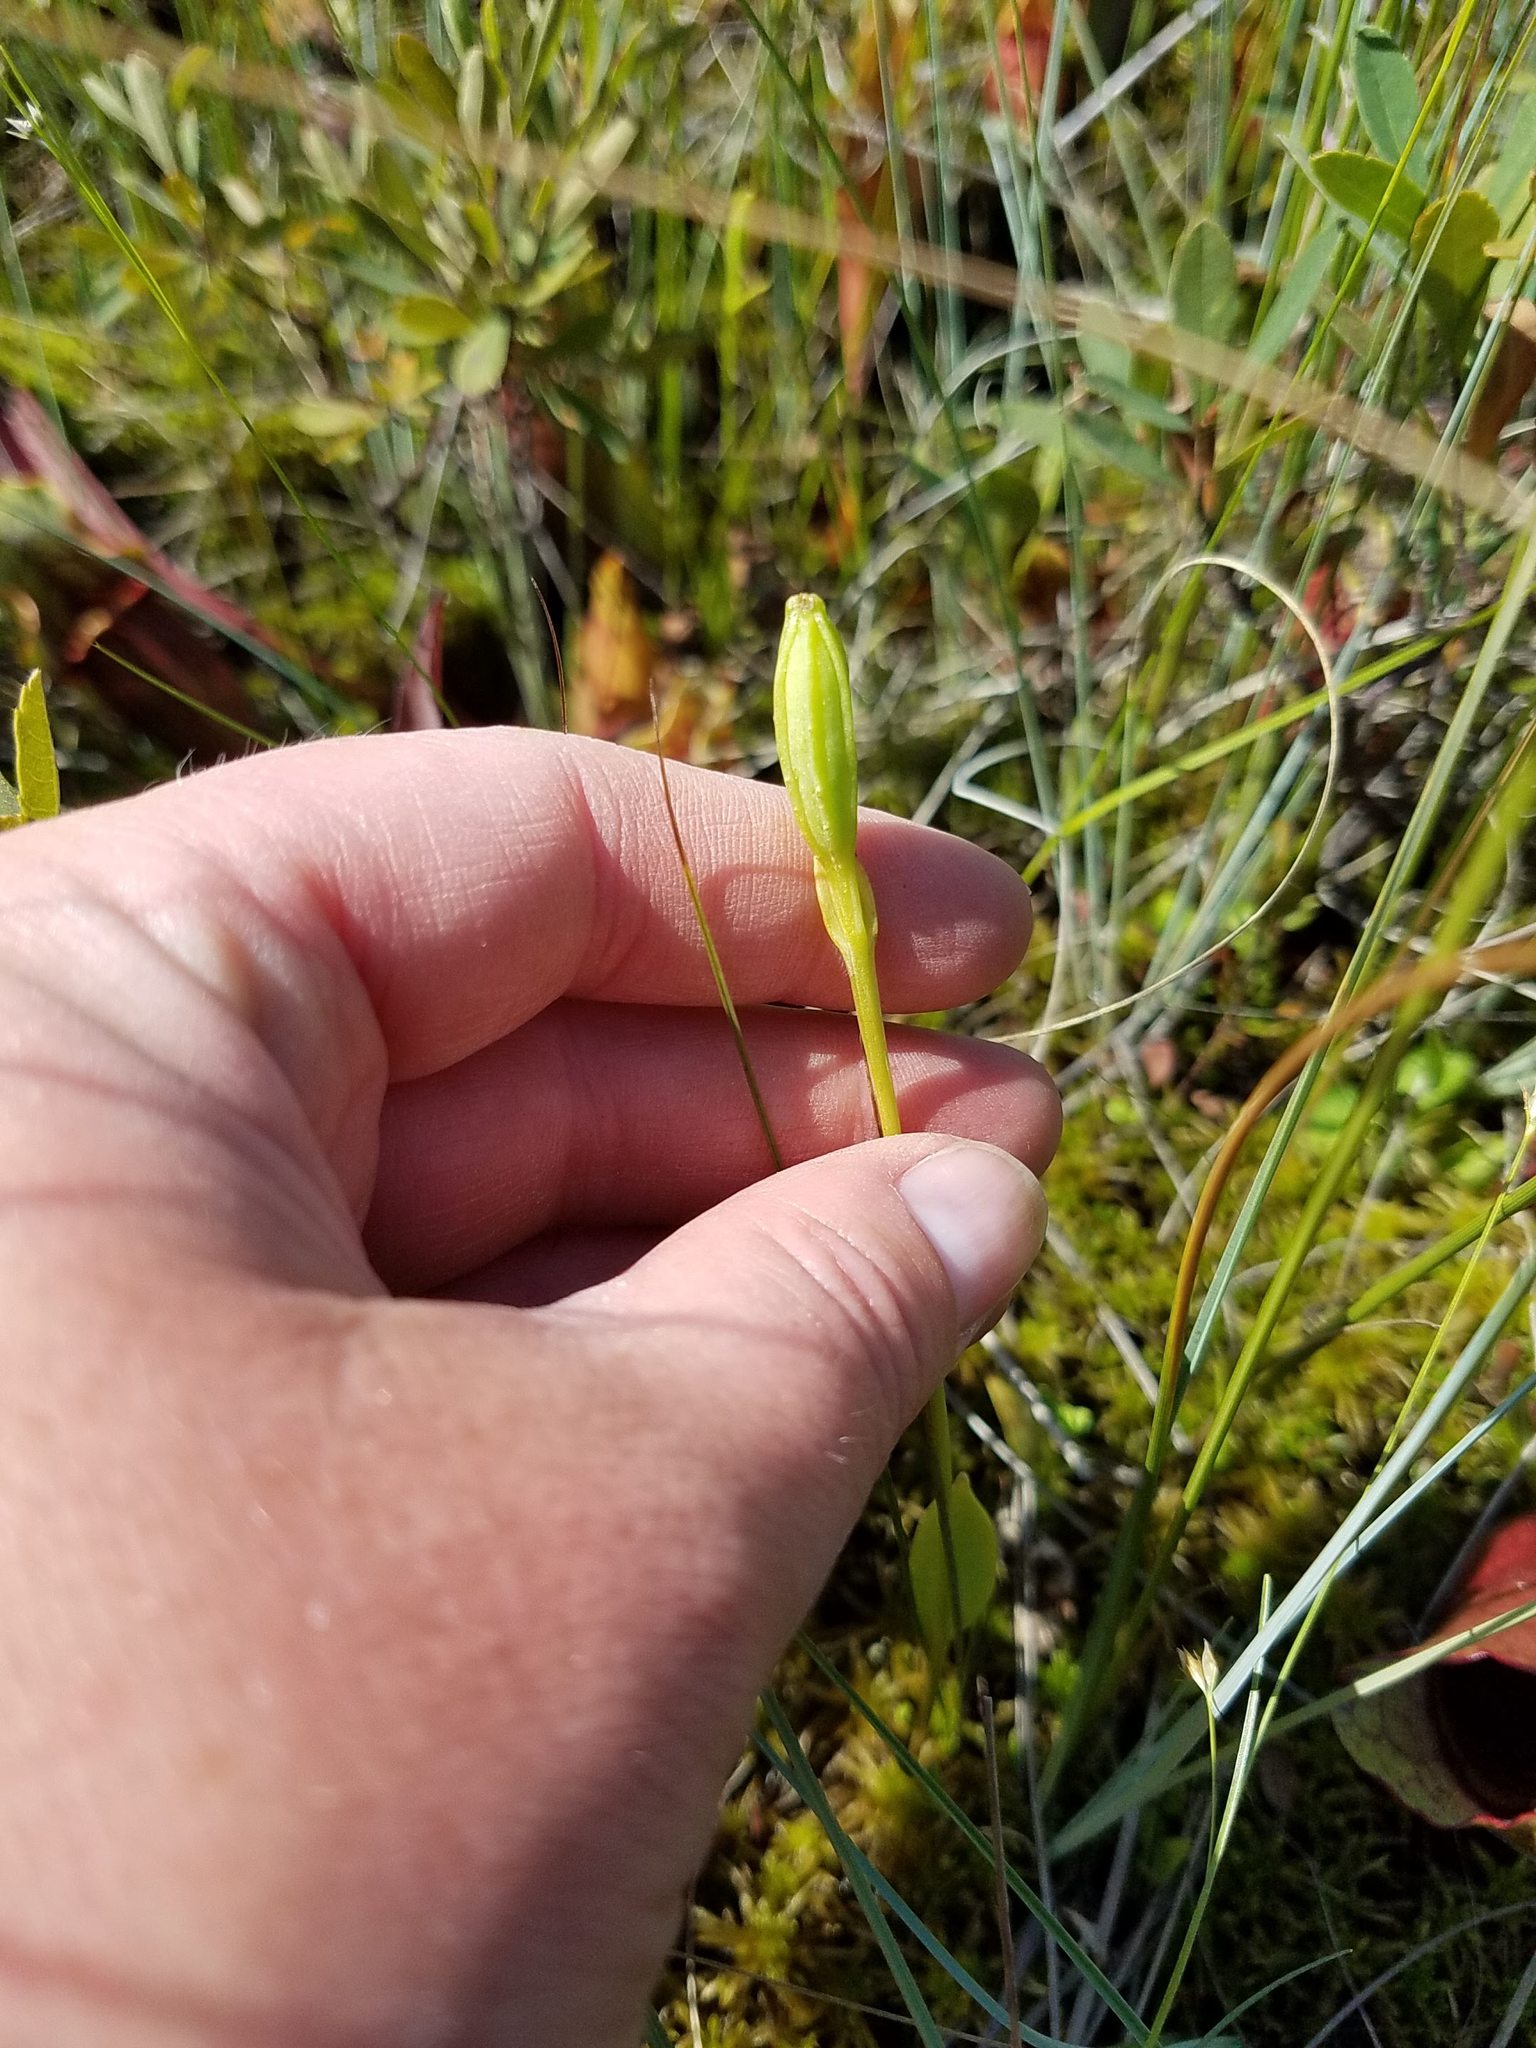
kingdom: Plantae
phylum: Tracheophyta
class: Liliopsida
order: Asparagales
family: Orchidaceae
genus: Pogonia
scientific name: Pogonia ophioglossoides
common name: Rose pogonia
